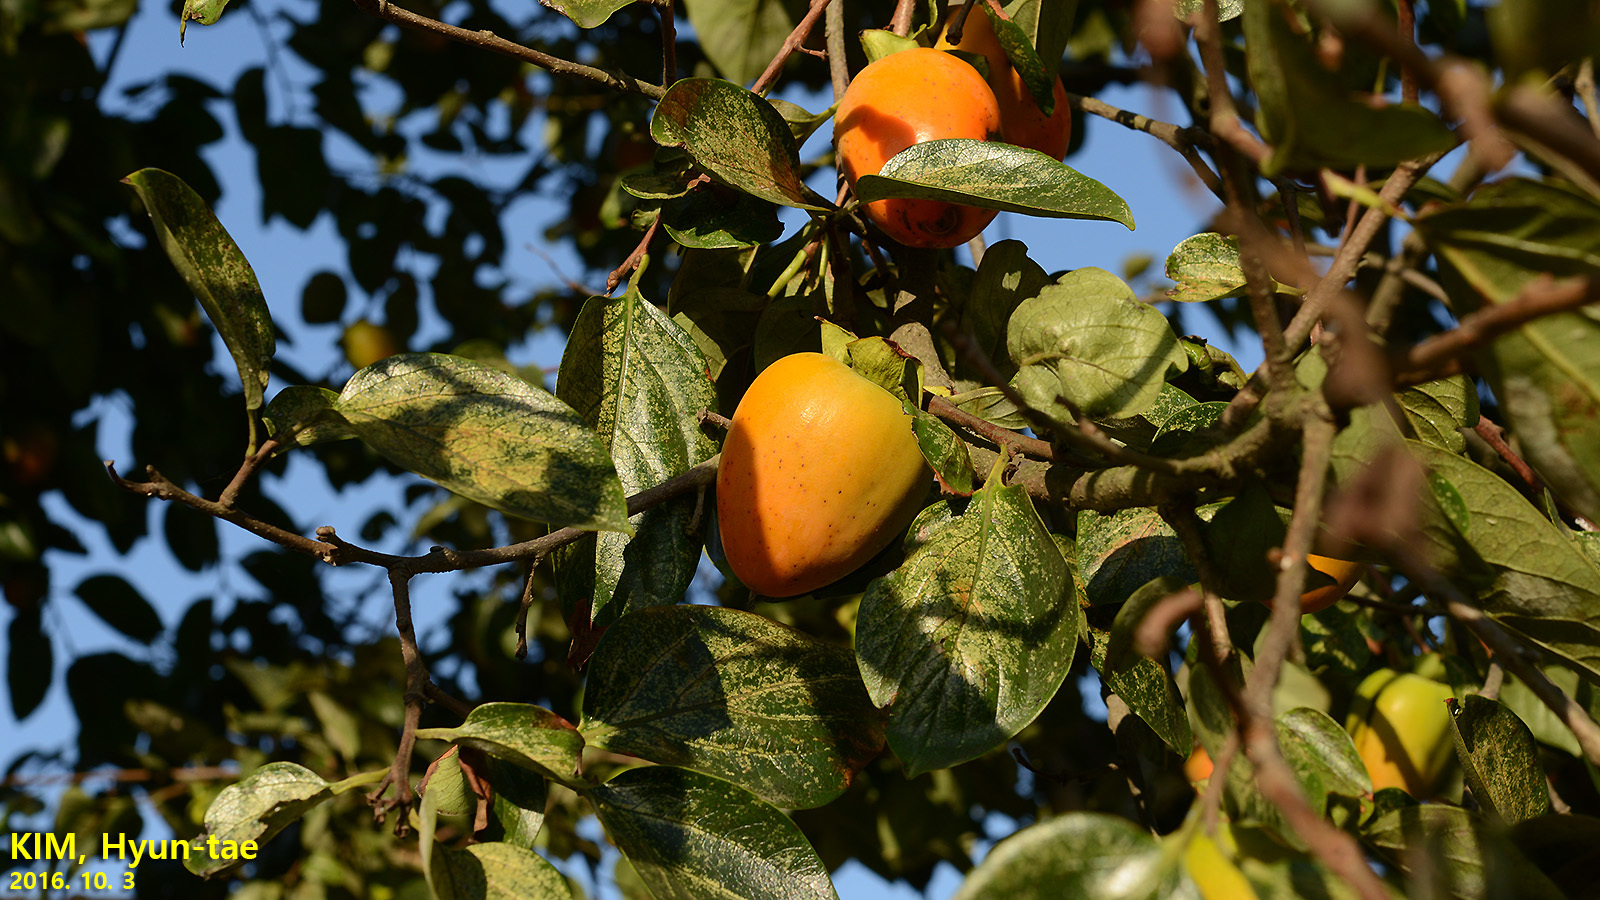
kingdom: Plantae
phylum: Tracheophyta
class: Magnoliopsida
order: Ericales
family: Ebenaceae
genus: Diospyros
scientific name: Diospyros kaki
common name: Persimmon
